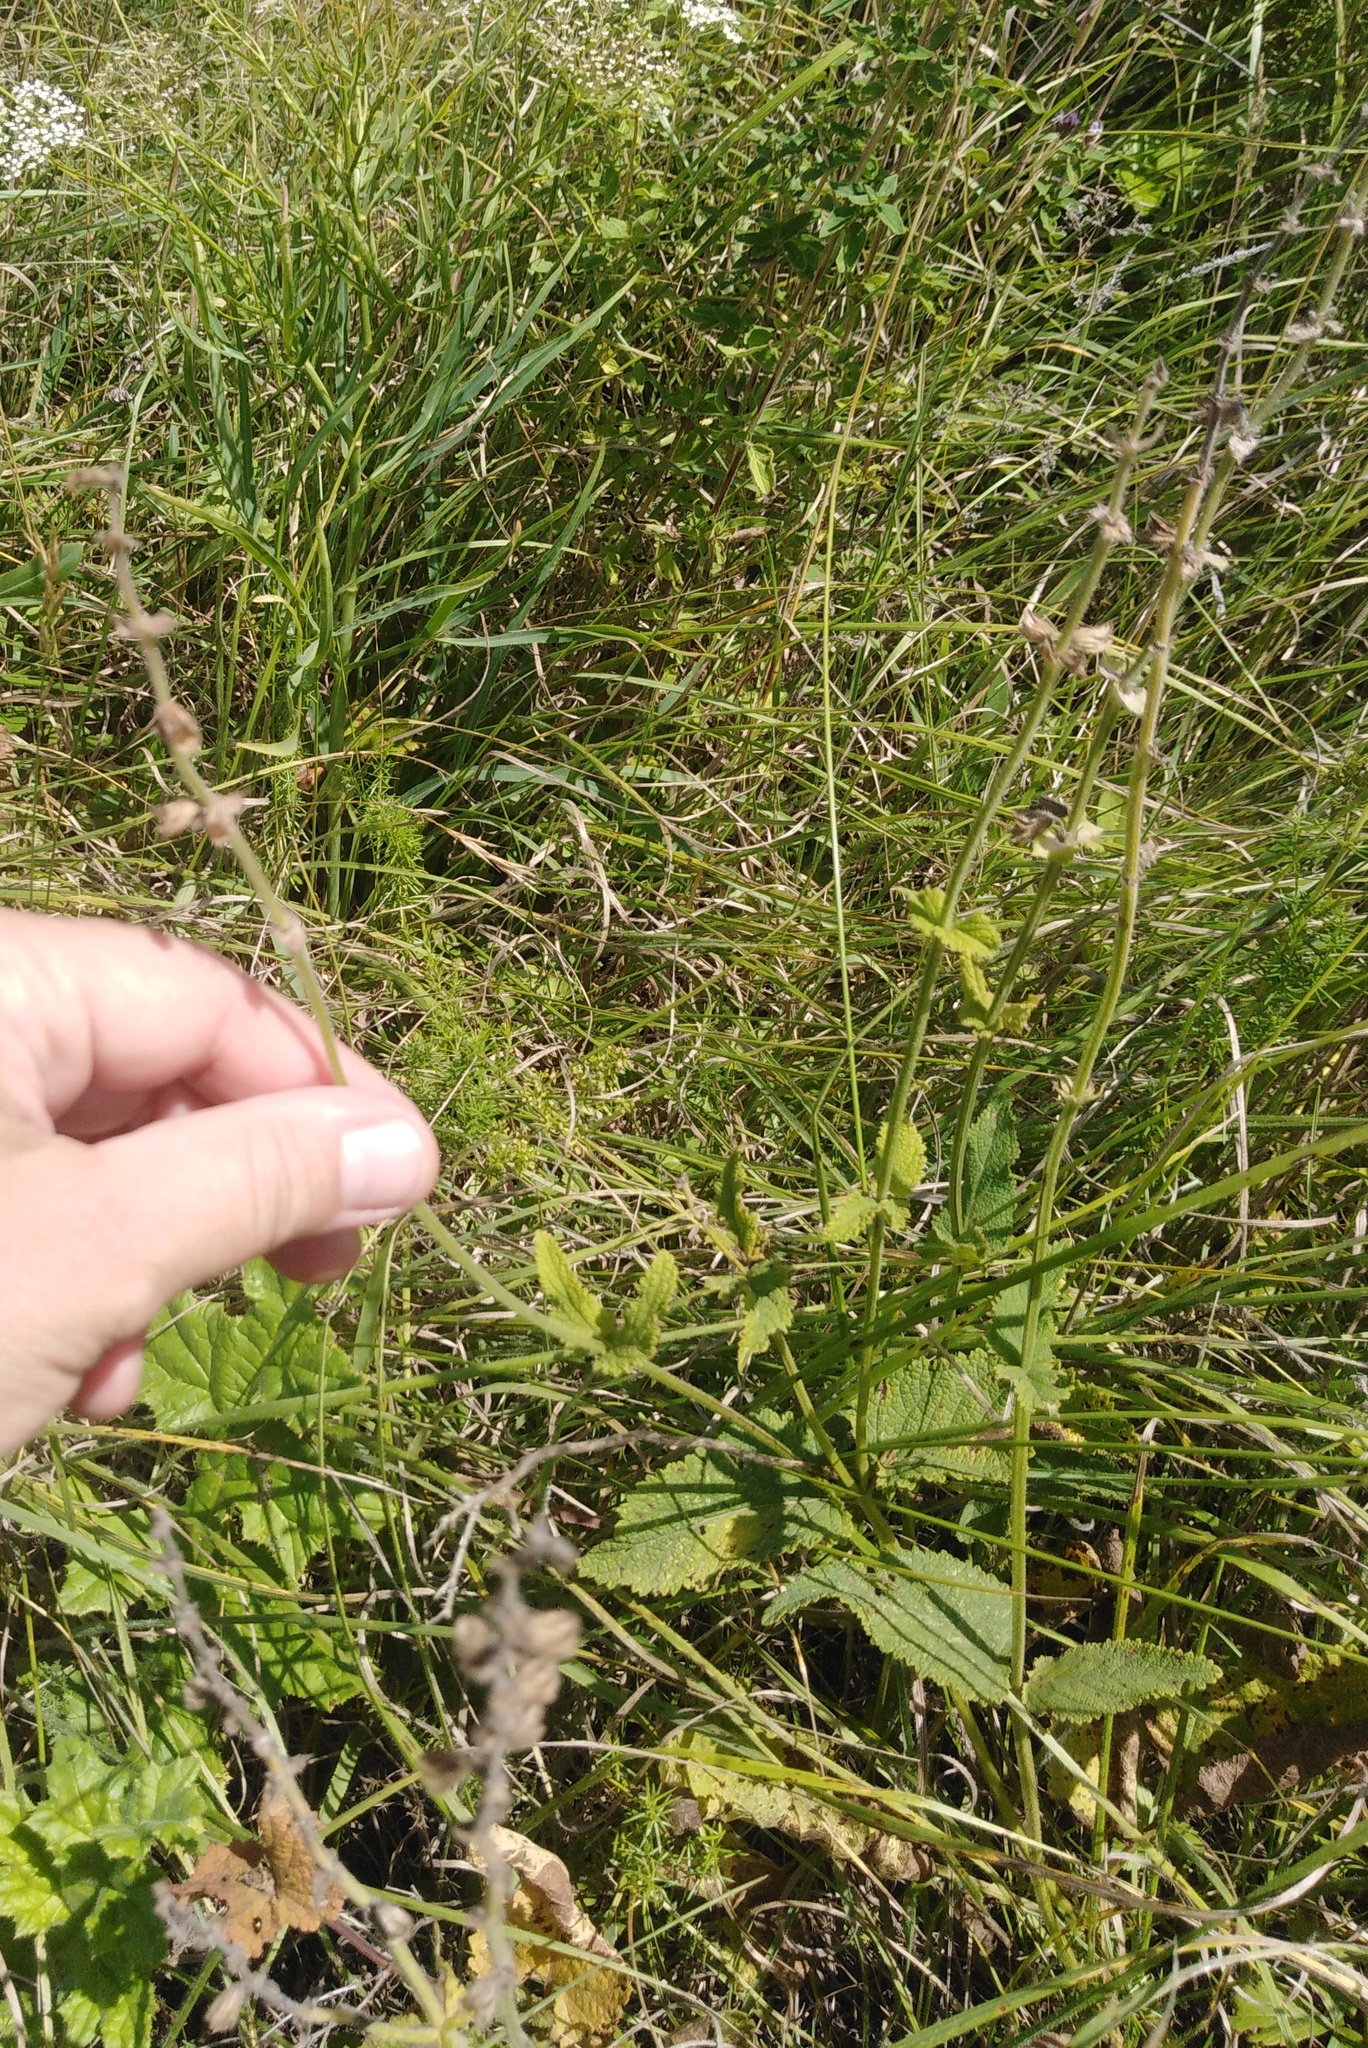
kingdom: Plantae
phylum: Tracheophyta
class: Magnoliopsida
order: Lamiales
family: Lamiaceae
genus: Salvia
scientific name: Salvia dumetorum
